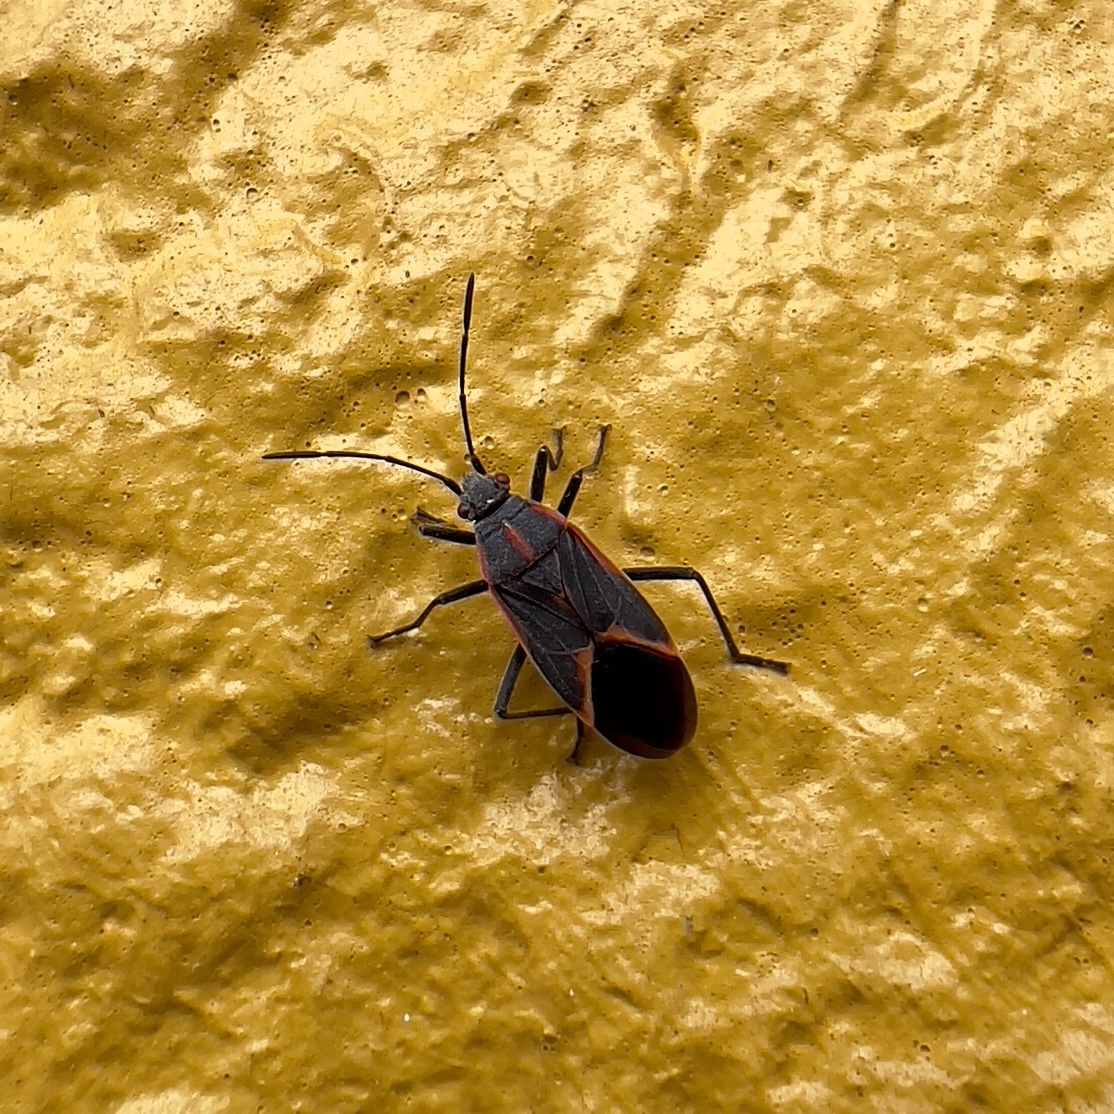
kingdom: Animalia
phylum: Arthropoda
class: Insecta
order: Hemiptera
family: Rhopalidae
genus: Boisea
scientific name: Boisea trivittata
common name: Boxelder bug
